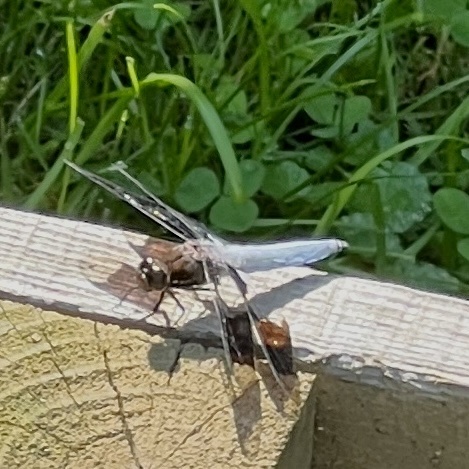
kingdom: Animalia
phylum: Arthropoda
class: Insecta
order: Odonata
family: Libellulidae
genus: Plathemis
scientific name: Plathemis lydia
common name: Common whitetail
